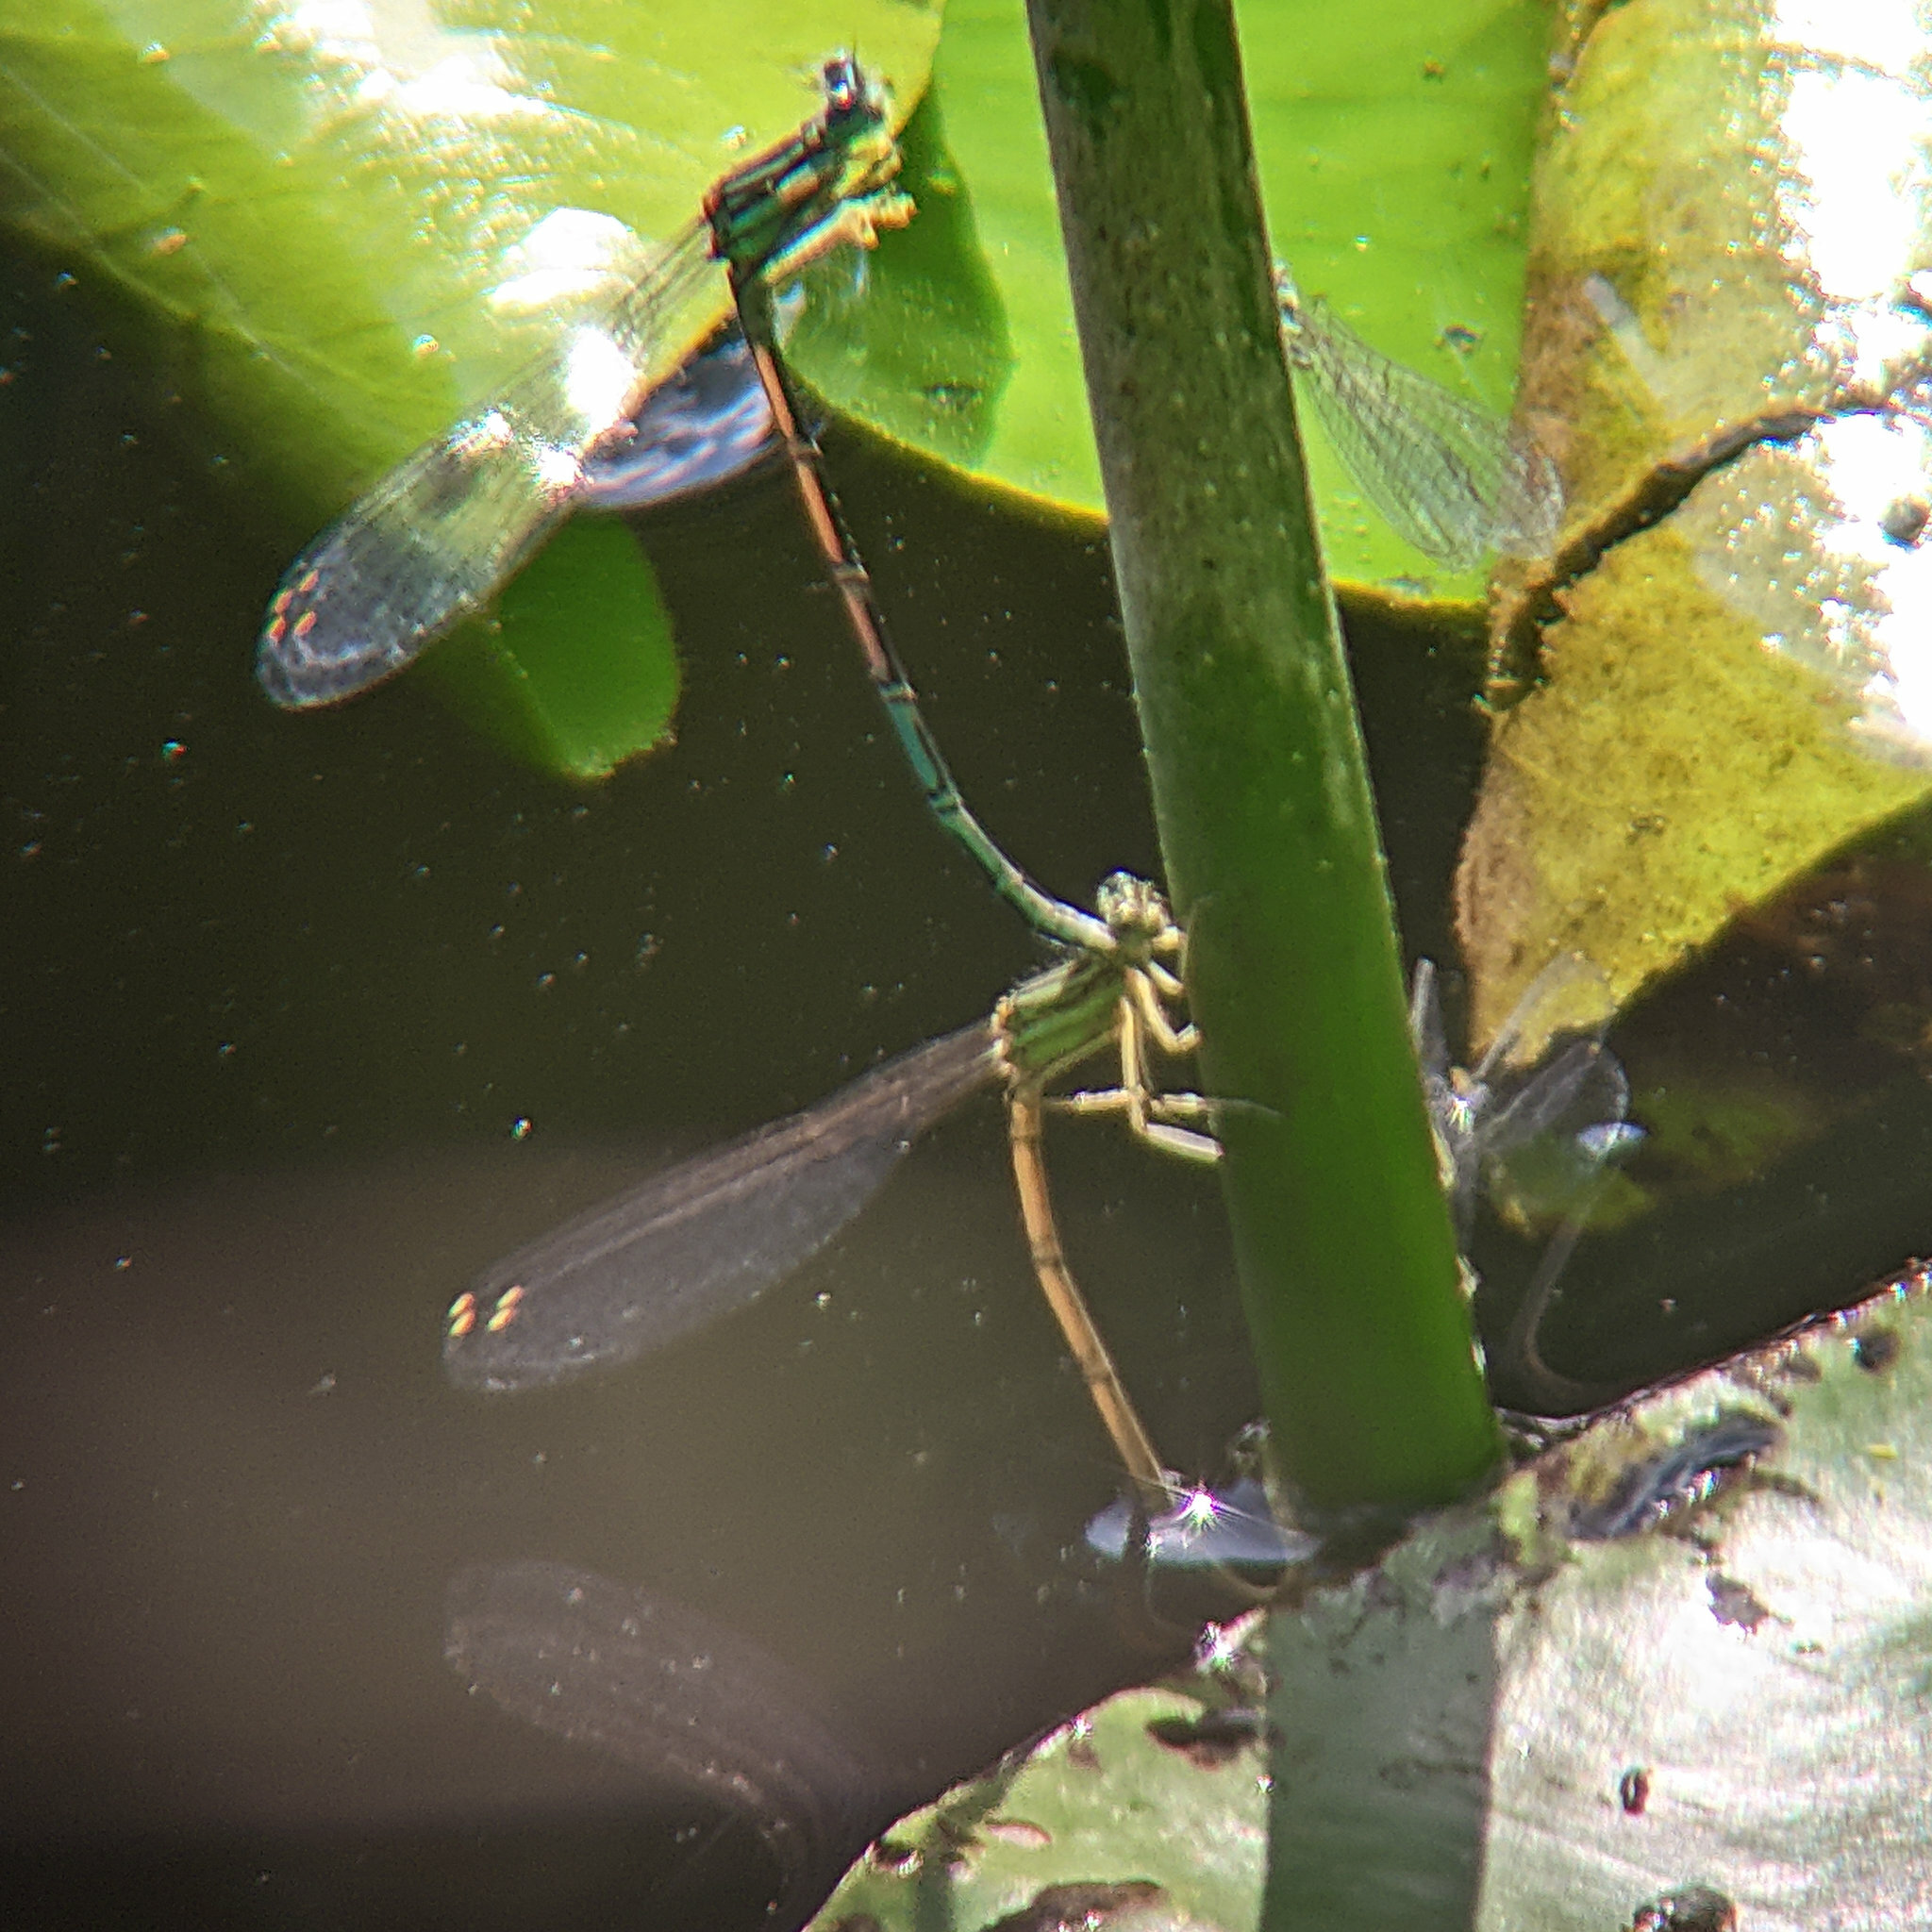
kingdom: Animalia
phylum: Arthropoda
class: Insecta
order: Odonata
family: Platycnemididae
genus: Platycnemis
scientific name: Platycnemis pennipes
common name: White-legged damselfly
